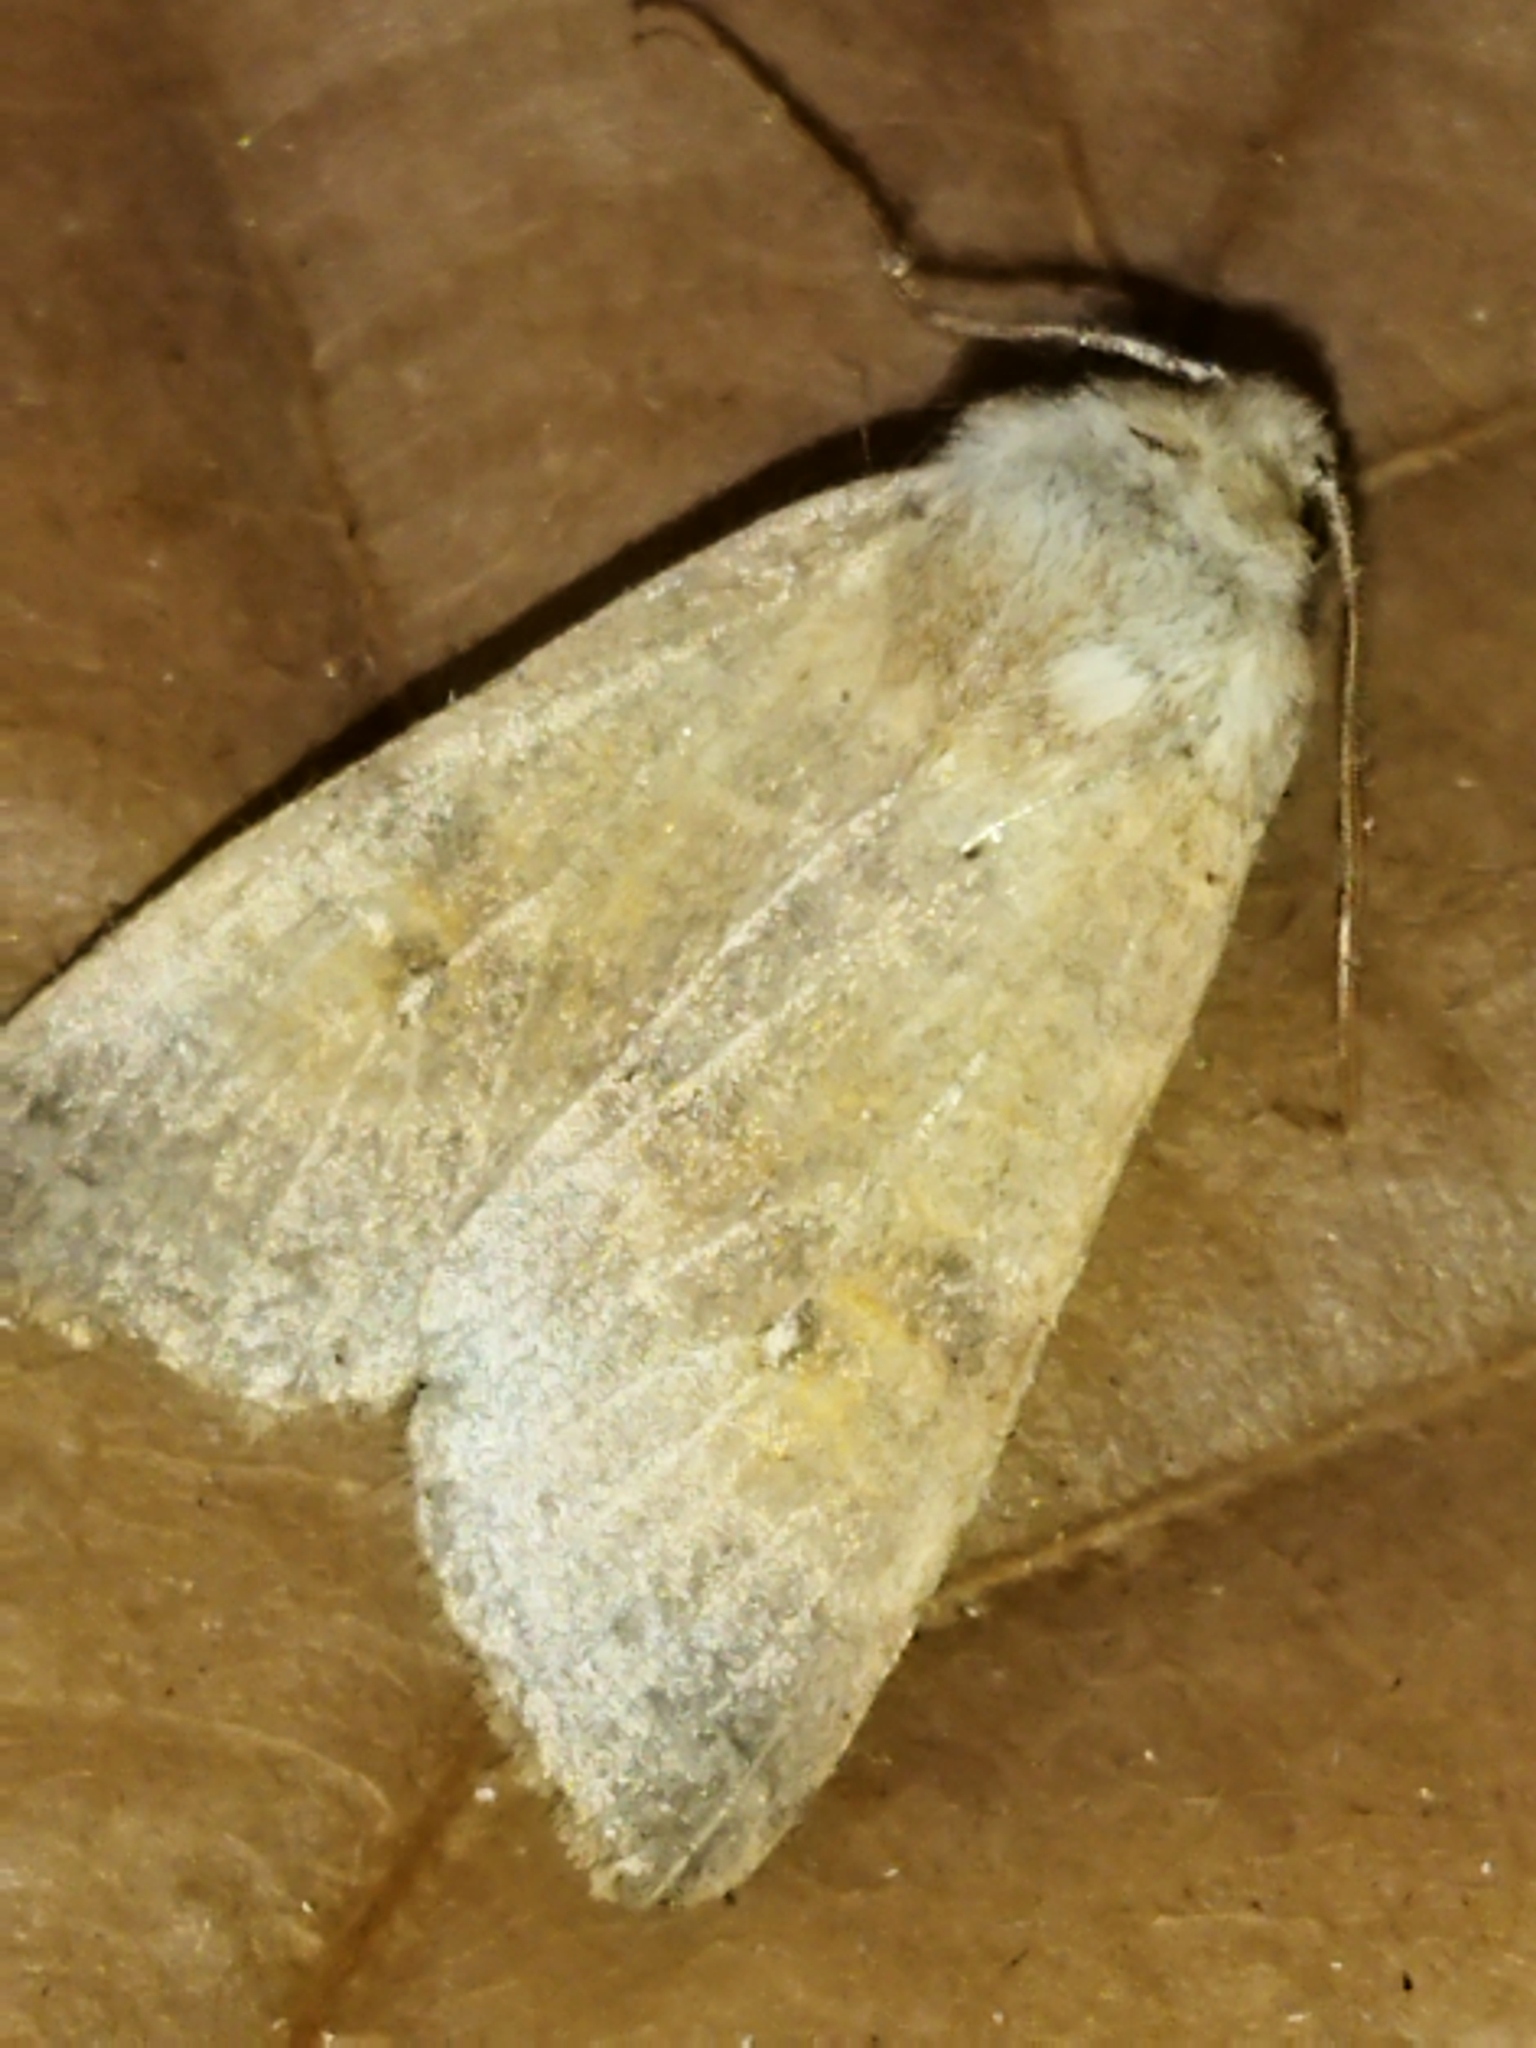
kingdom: Animalia
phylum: Arthropoda
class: Insecta
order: Lepidoptera
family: Noctuidae
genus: Xanthia
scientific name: Xanthia ocellaris
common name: Pale-lemon sallow
